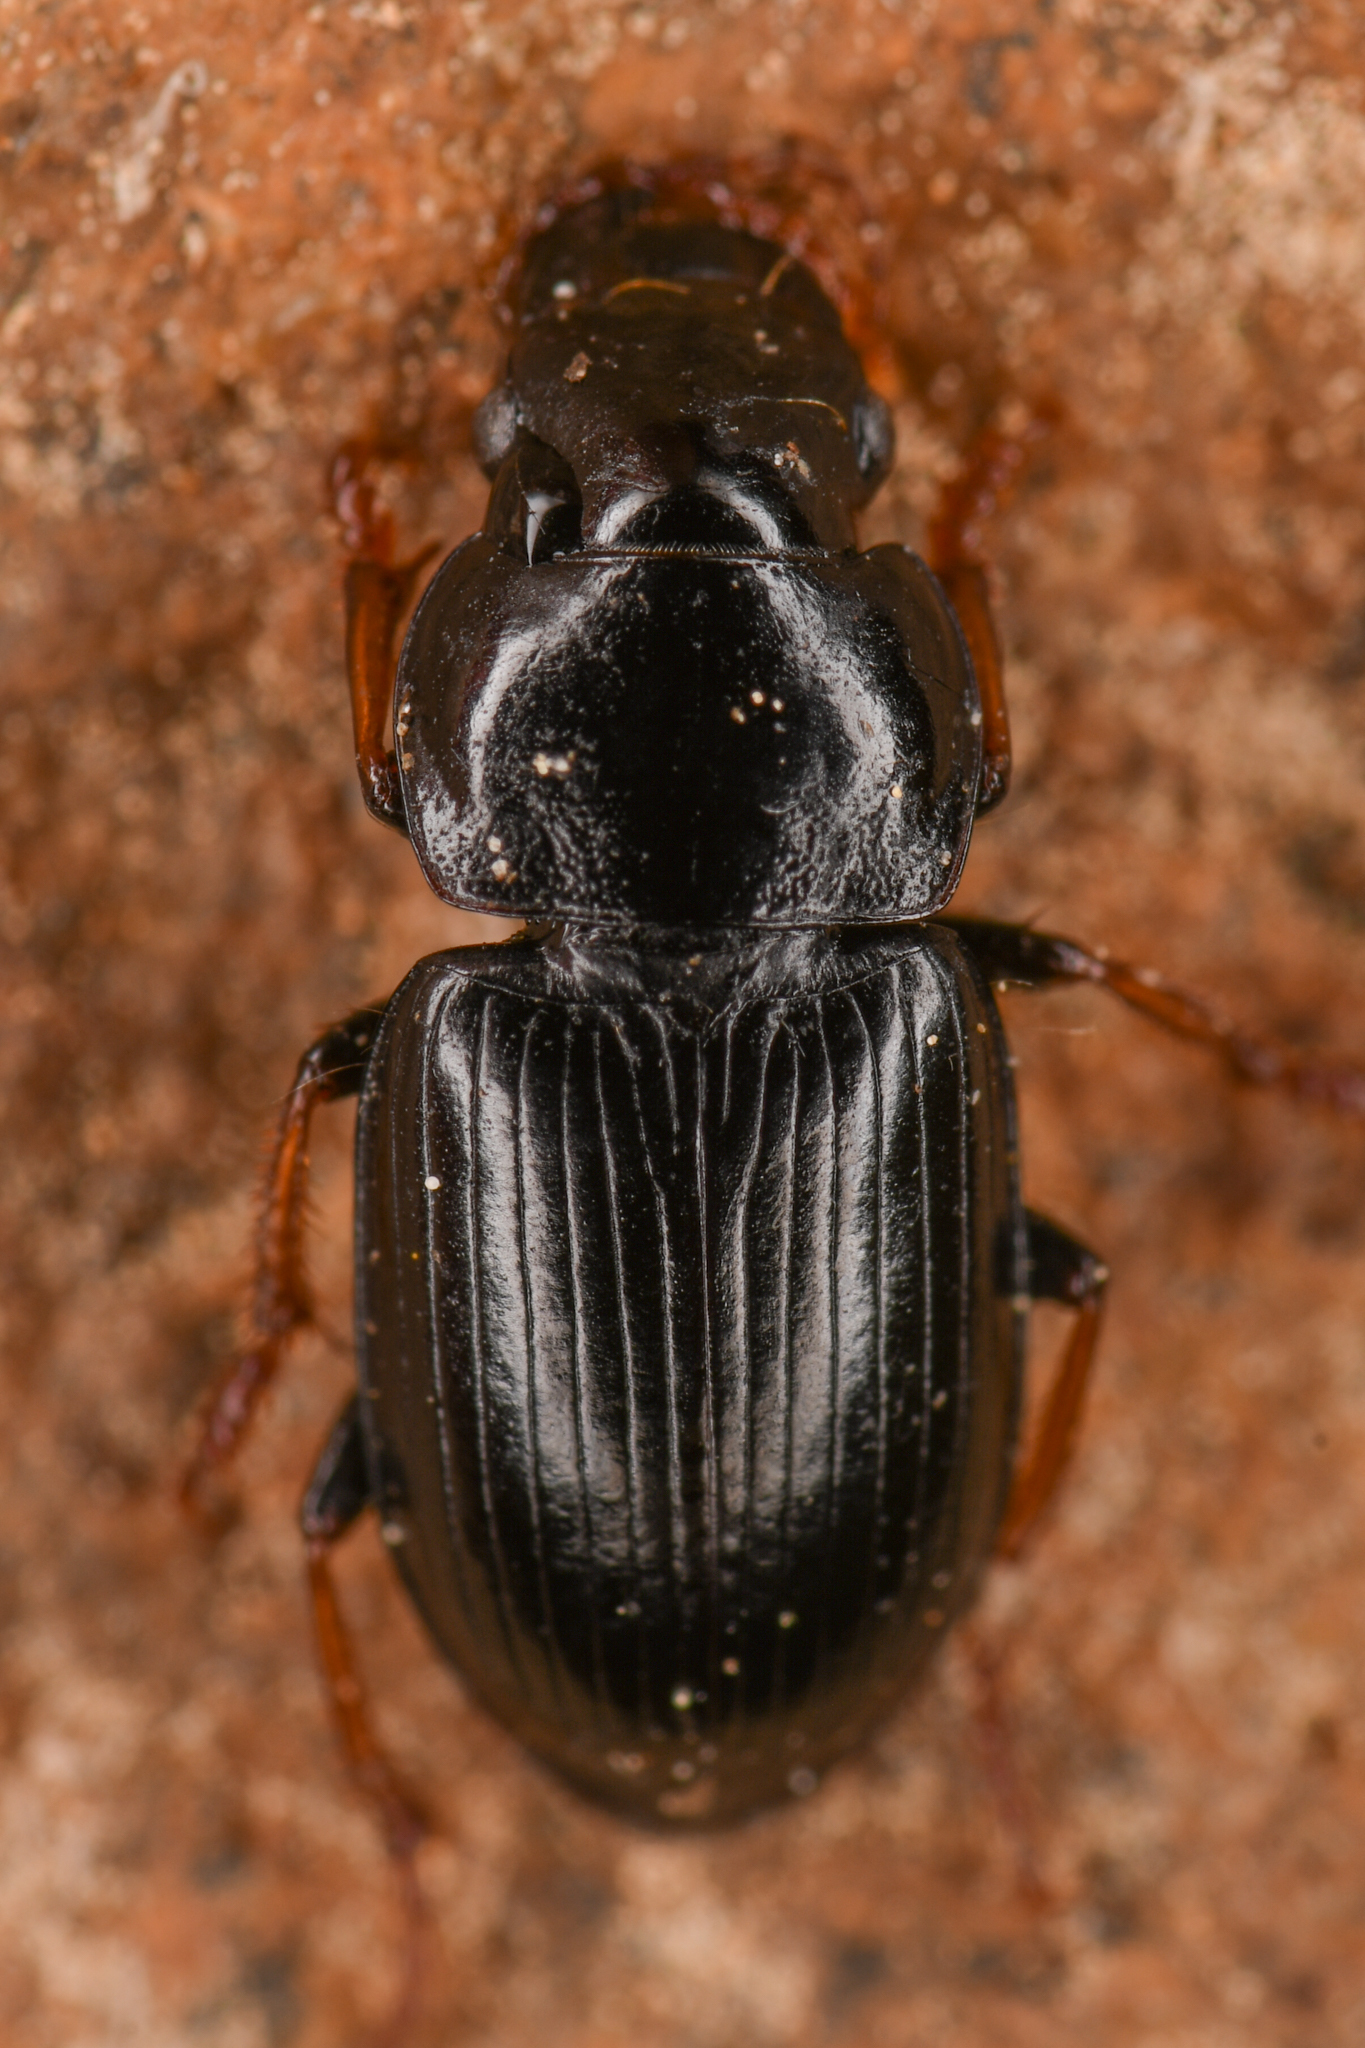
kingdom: Animalia
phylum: Arthropoda
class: Insecta
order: Coleoptera
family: Carabidae
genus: Harpalus
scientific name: Harpalus solitaris
